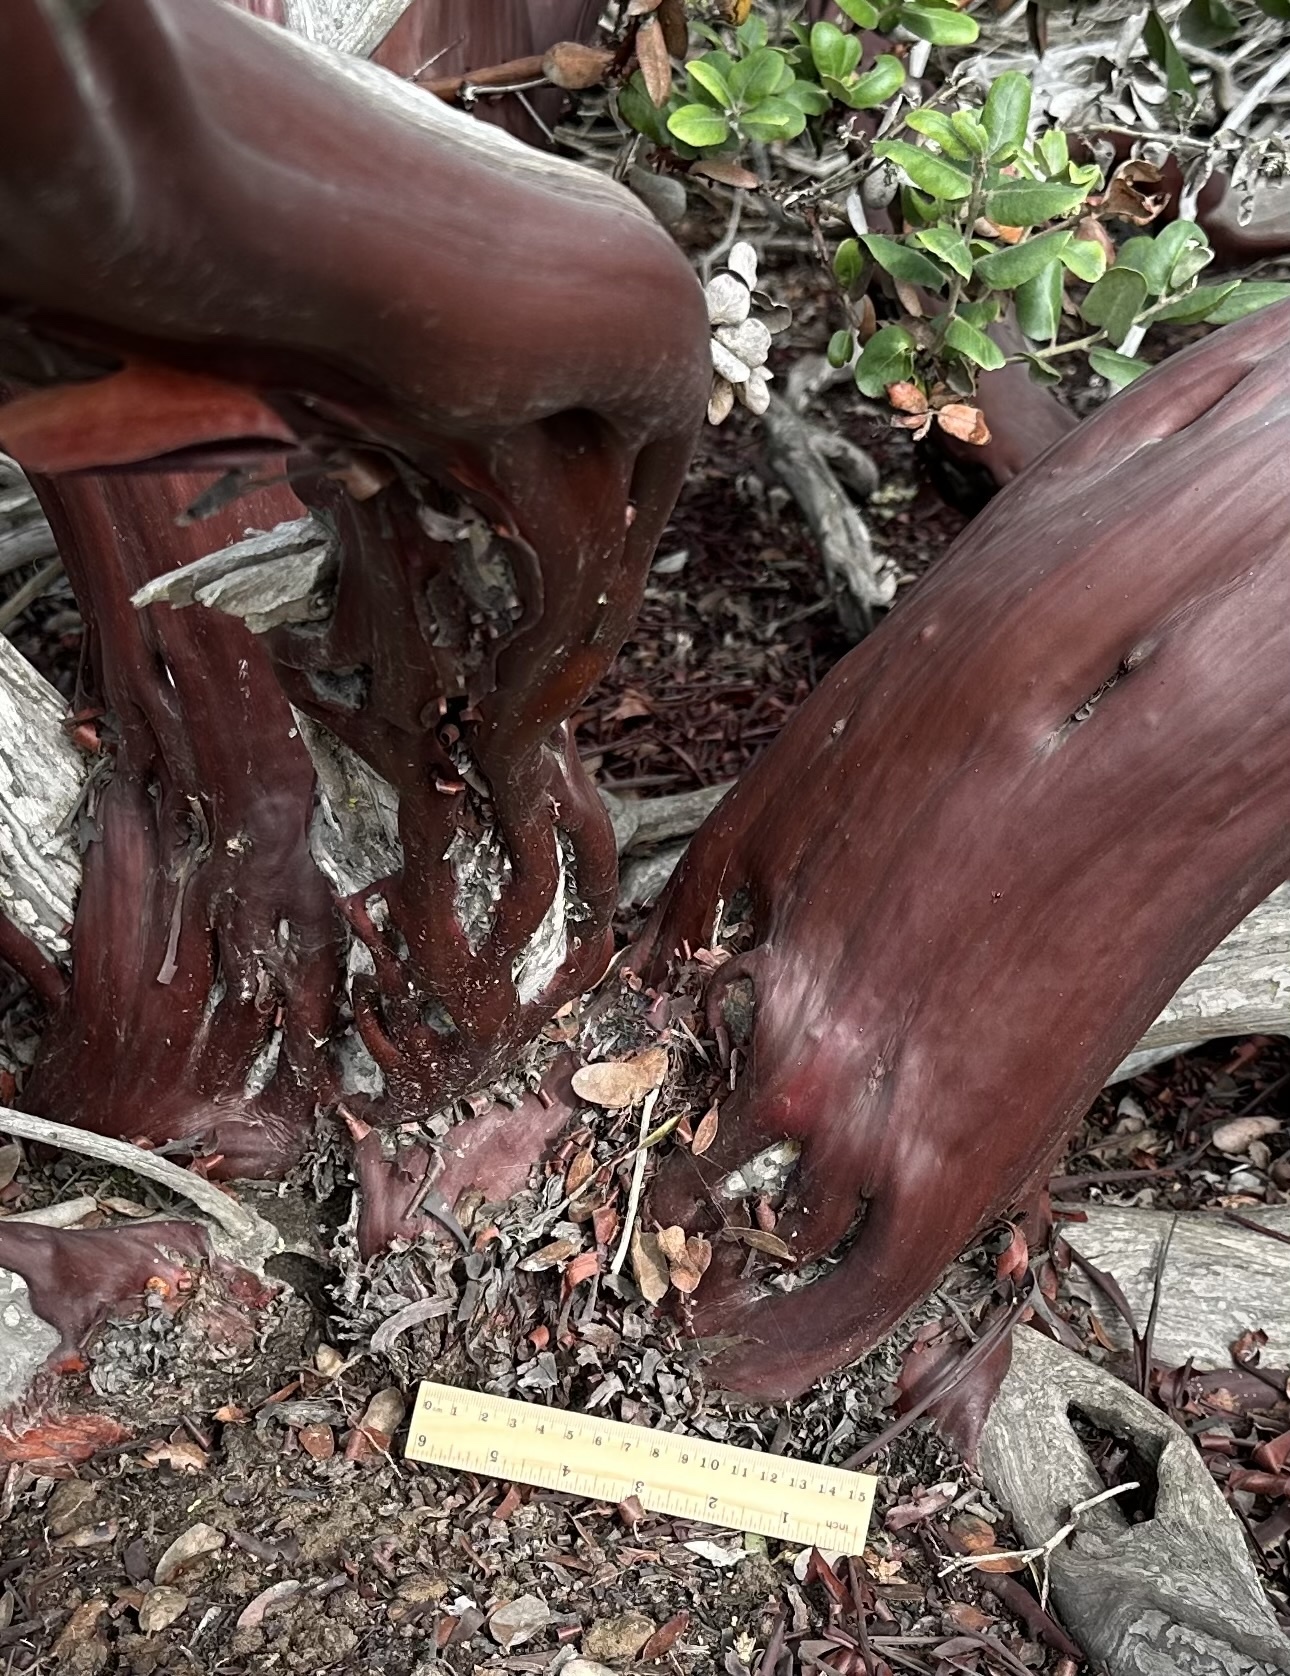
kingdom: Plantae
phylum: Tracheophyta
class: Magnoliopsida
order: Ericales
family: Ericaceae
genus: Arctostaphylos
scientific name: Arctostaphylos montereyensis
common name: Monterey manzanita
